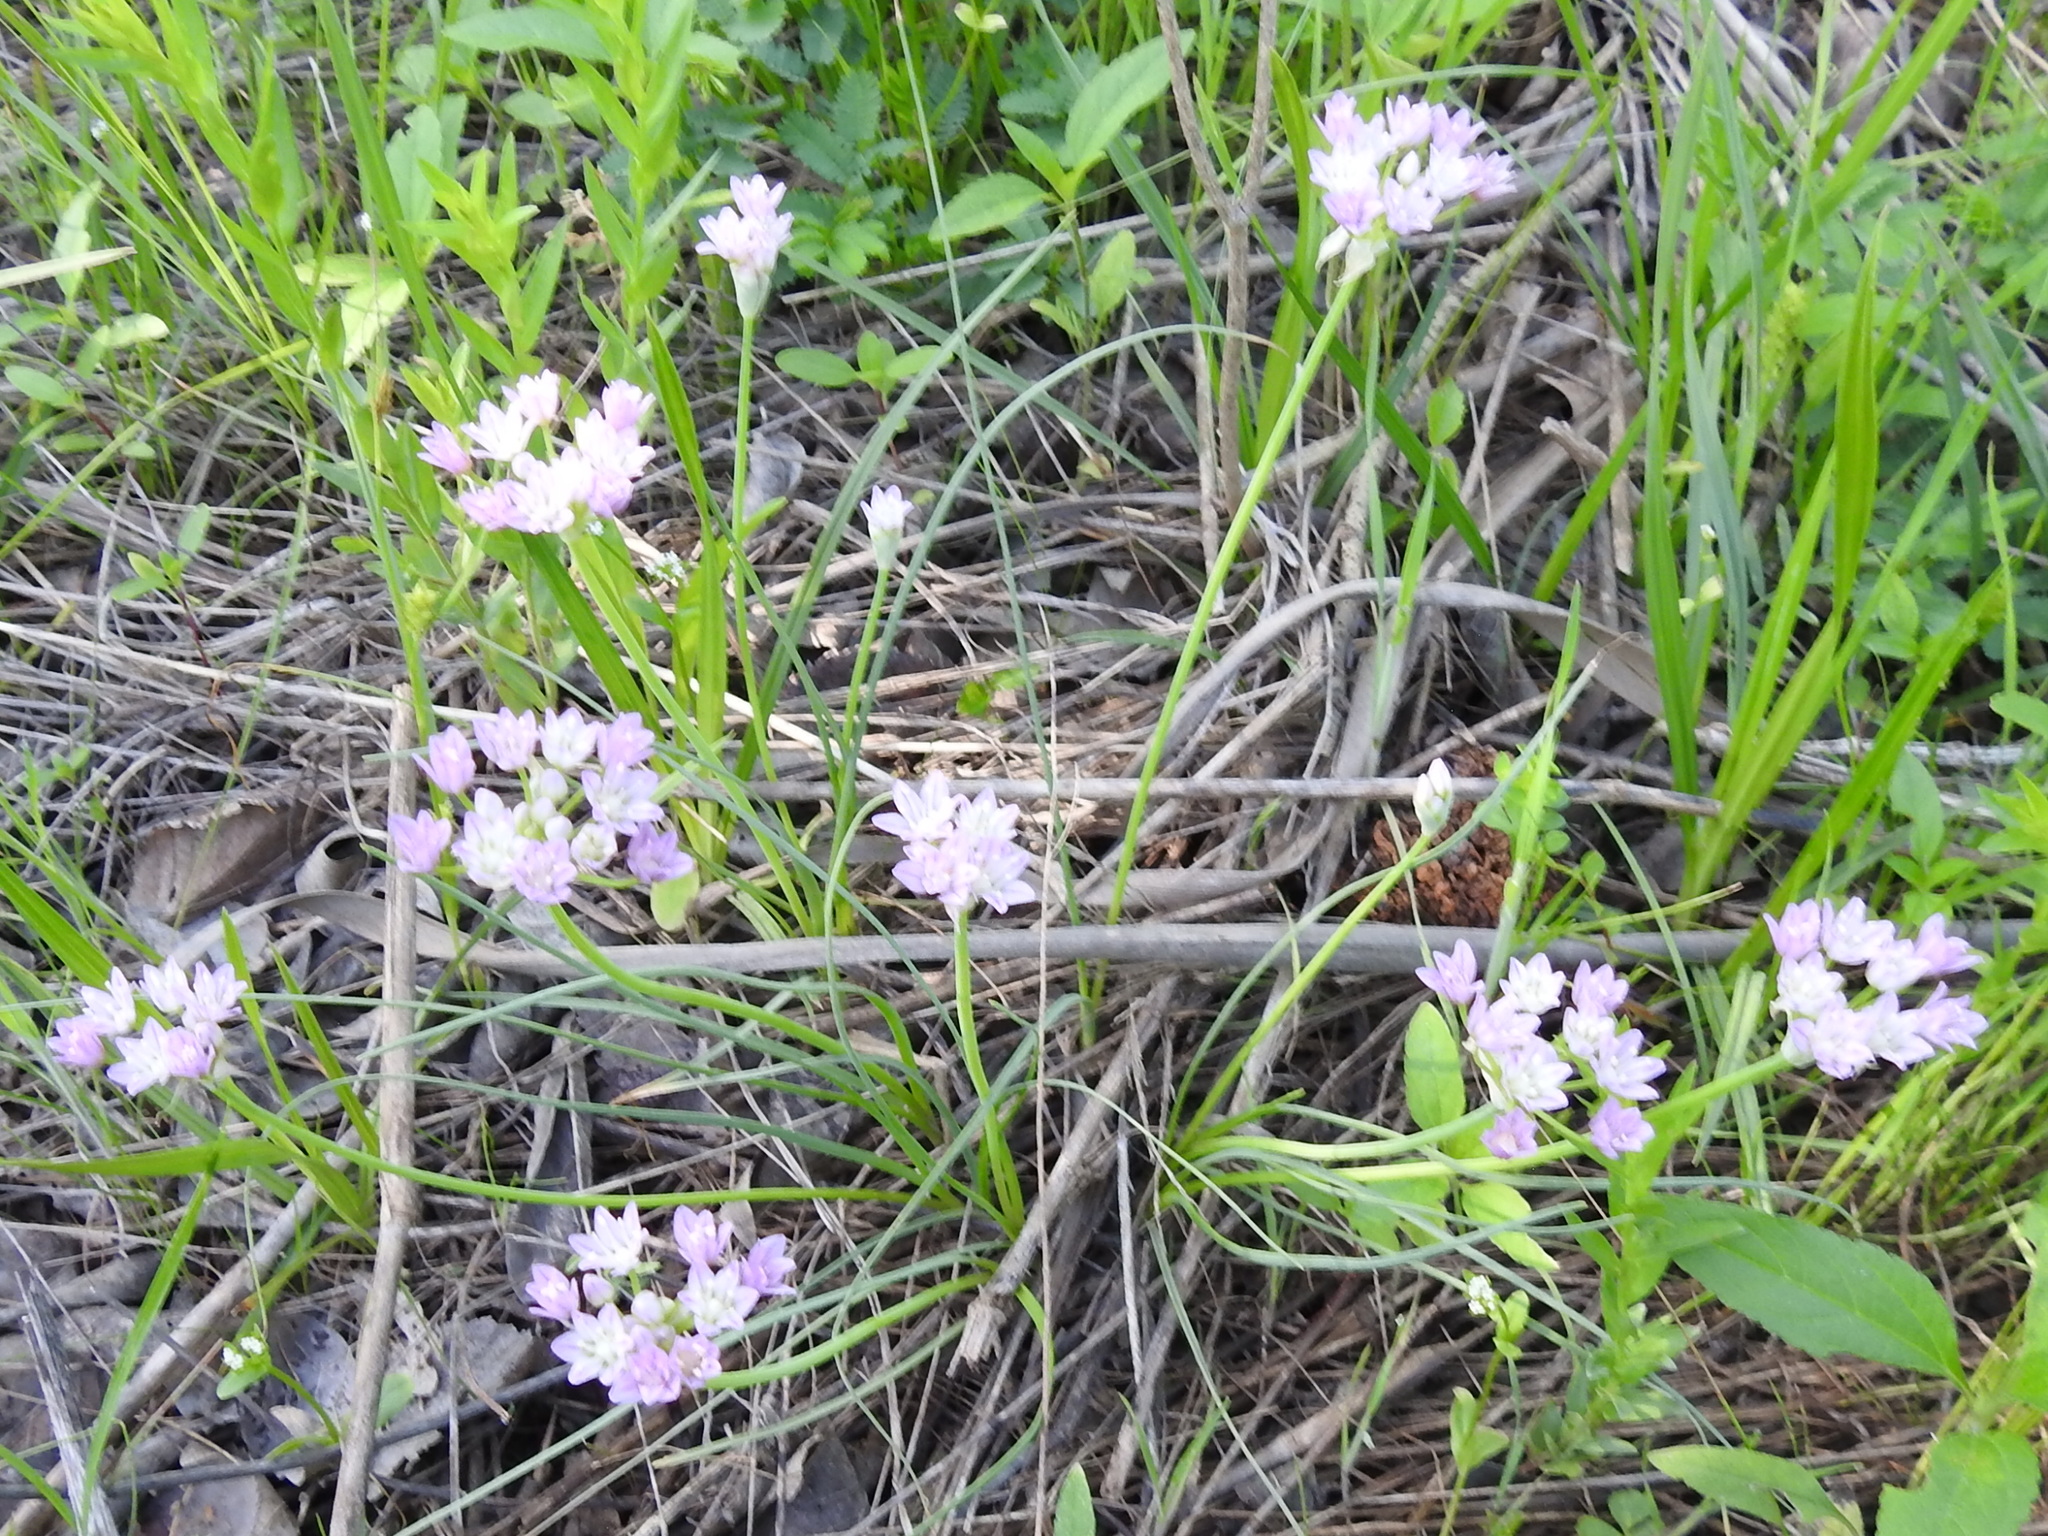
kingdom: Plantae
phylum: Tracheophyta
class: Liliopsida
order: Asparagales
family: Amaryllidaceae
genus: Allium
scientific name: Allium drummondii
